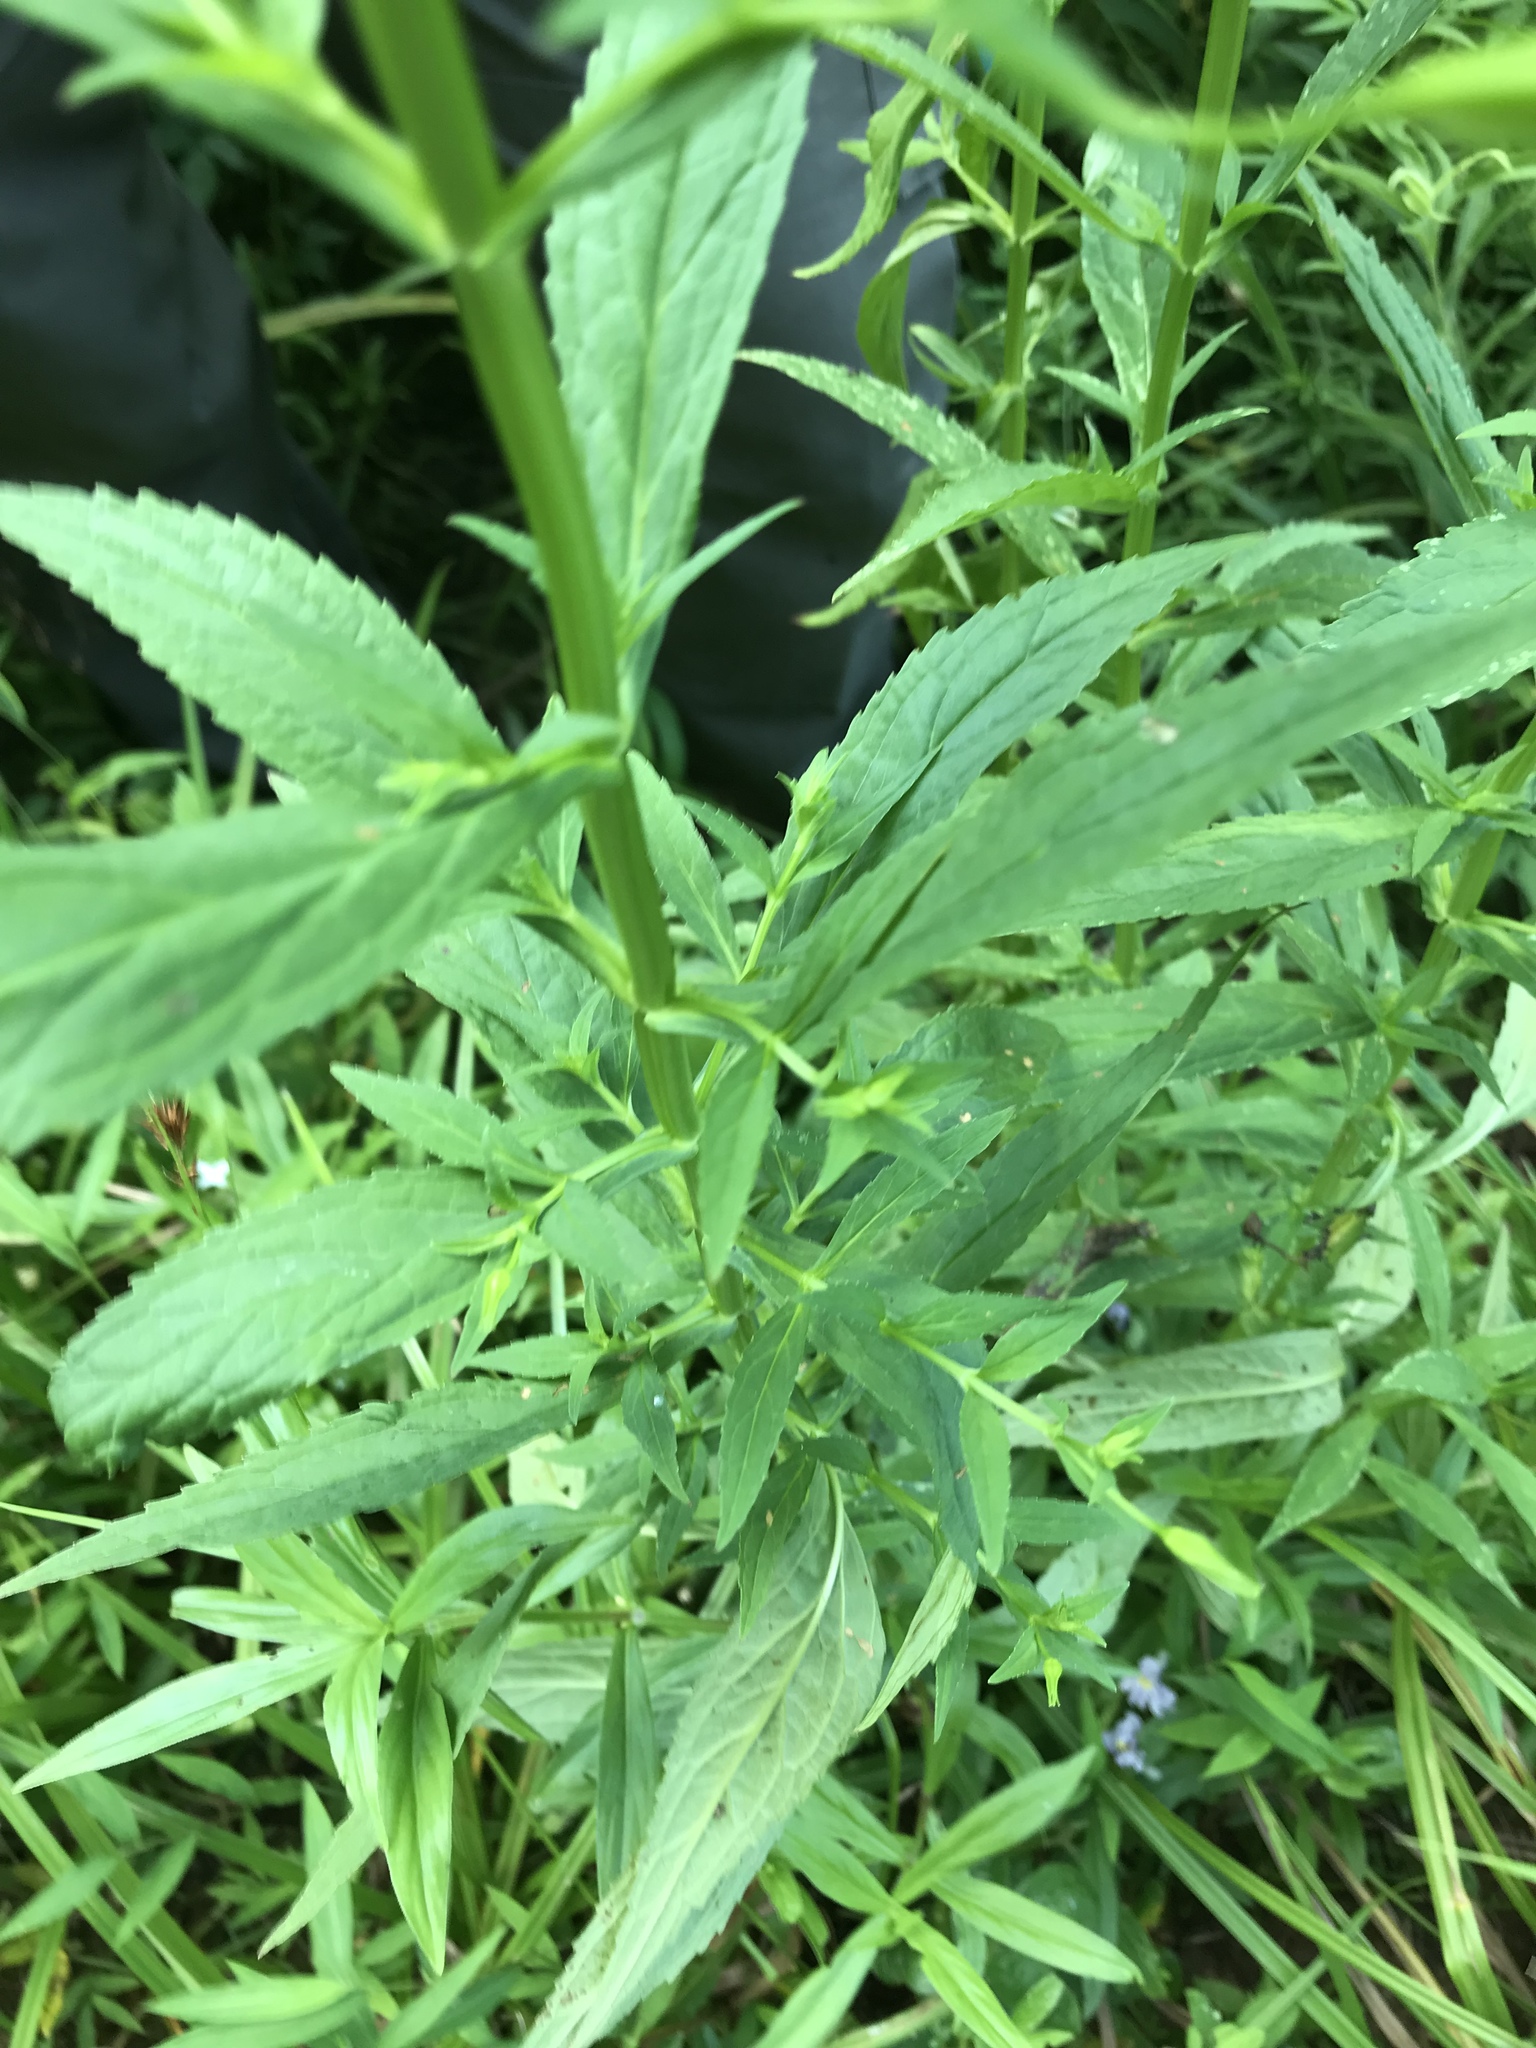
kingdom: Plantae
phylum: Tracheophyta
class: Magnoliopsida
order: Lamiales
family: Phrymaceae
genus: Mimulus
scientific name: Mimulus ringens
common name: Allegheny monkeyflower
